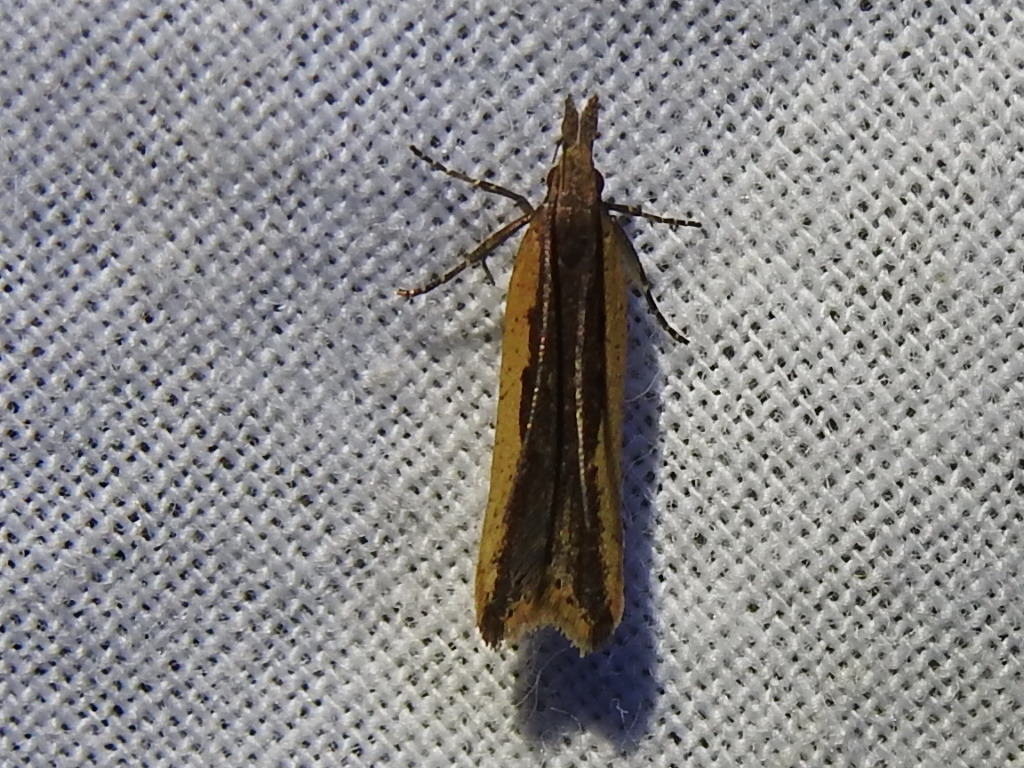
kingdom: Animalia
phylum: Arthropoda
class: Insecta
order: Lepidoptera
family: Gelechiidae
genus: Dichomeris
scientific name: Dichomeris ligulella
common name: Moth
